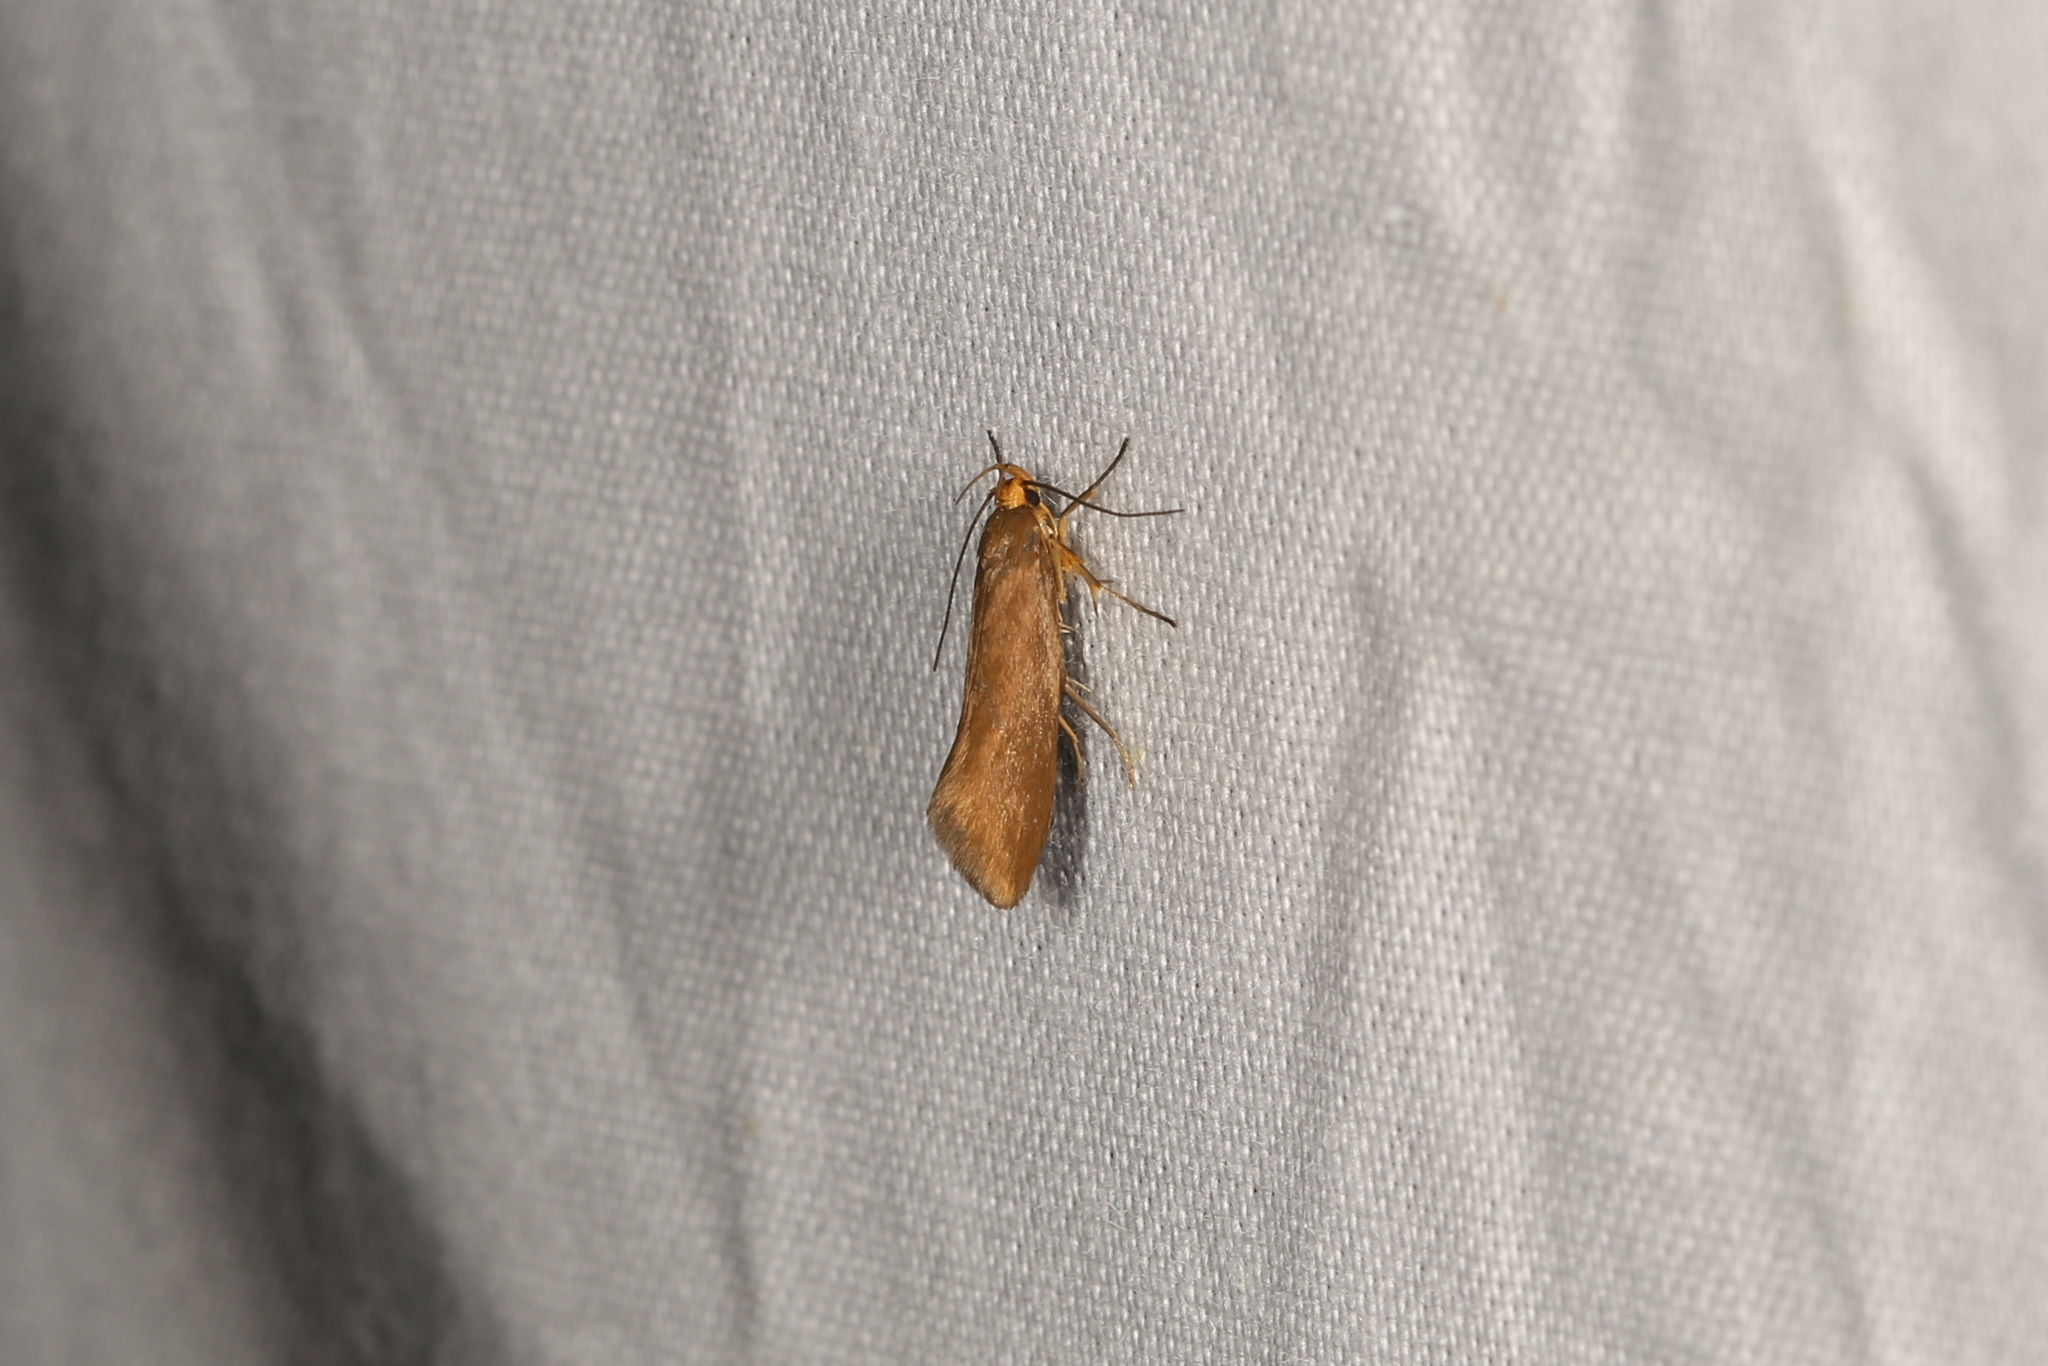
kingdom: Animalia
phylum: Arthropoda
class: Insecta
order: Lepidoptera
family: Oecophoridae
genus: Borkhausenia
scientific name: Borkhausenia Crassa unitella
